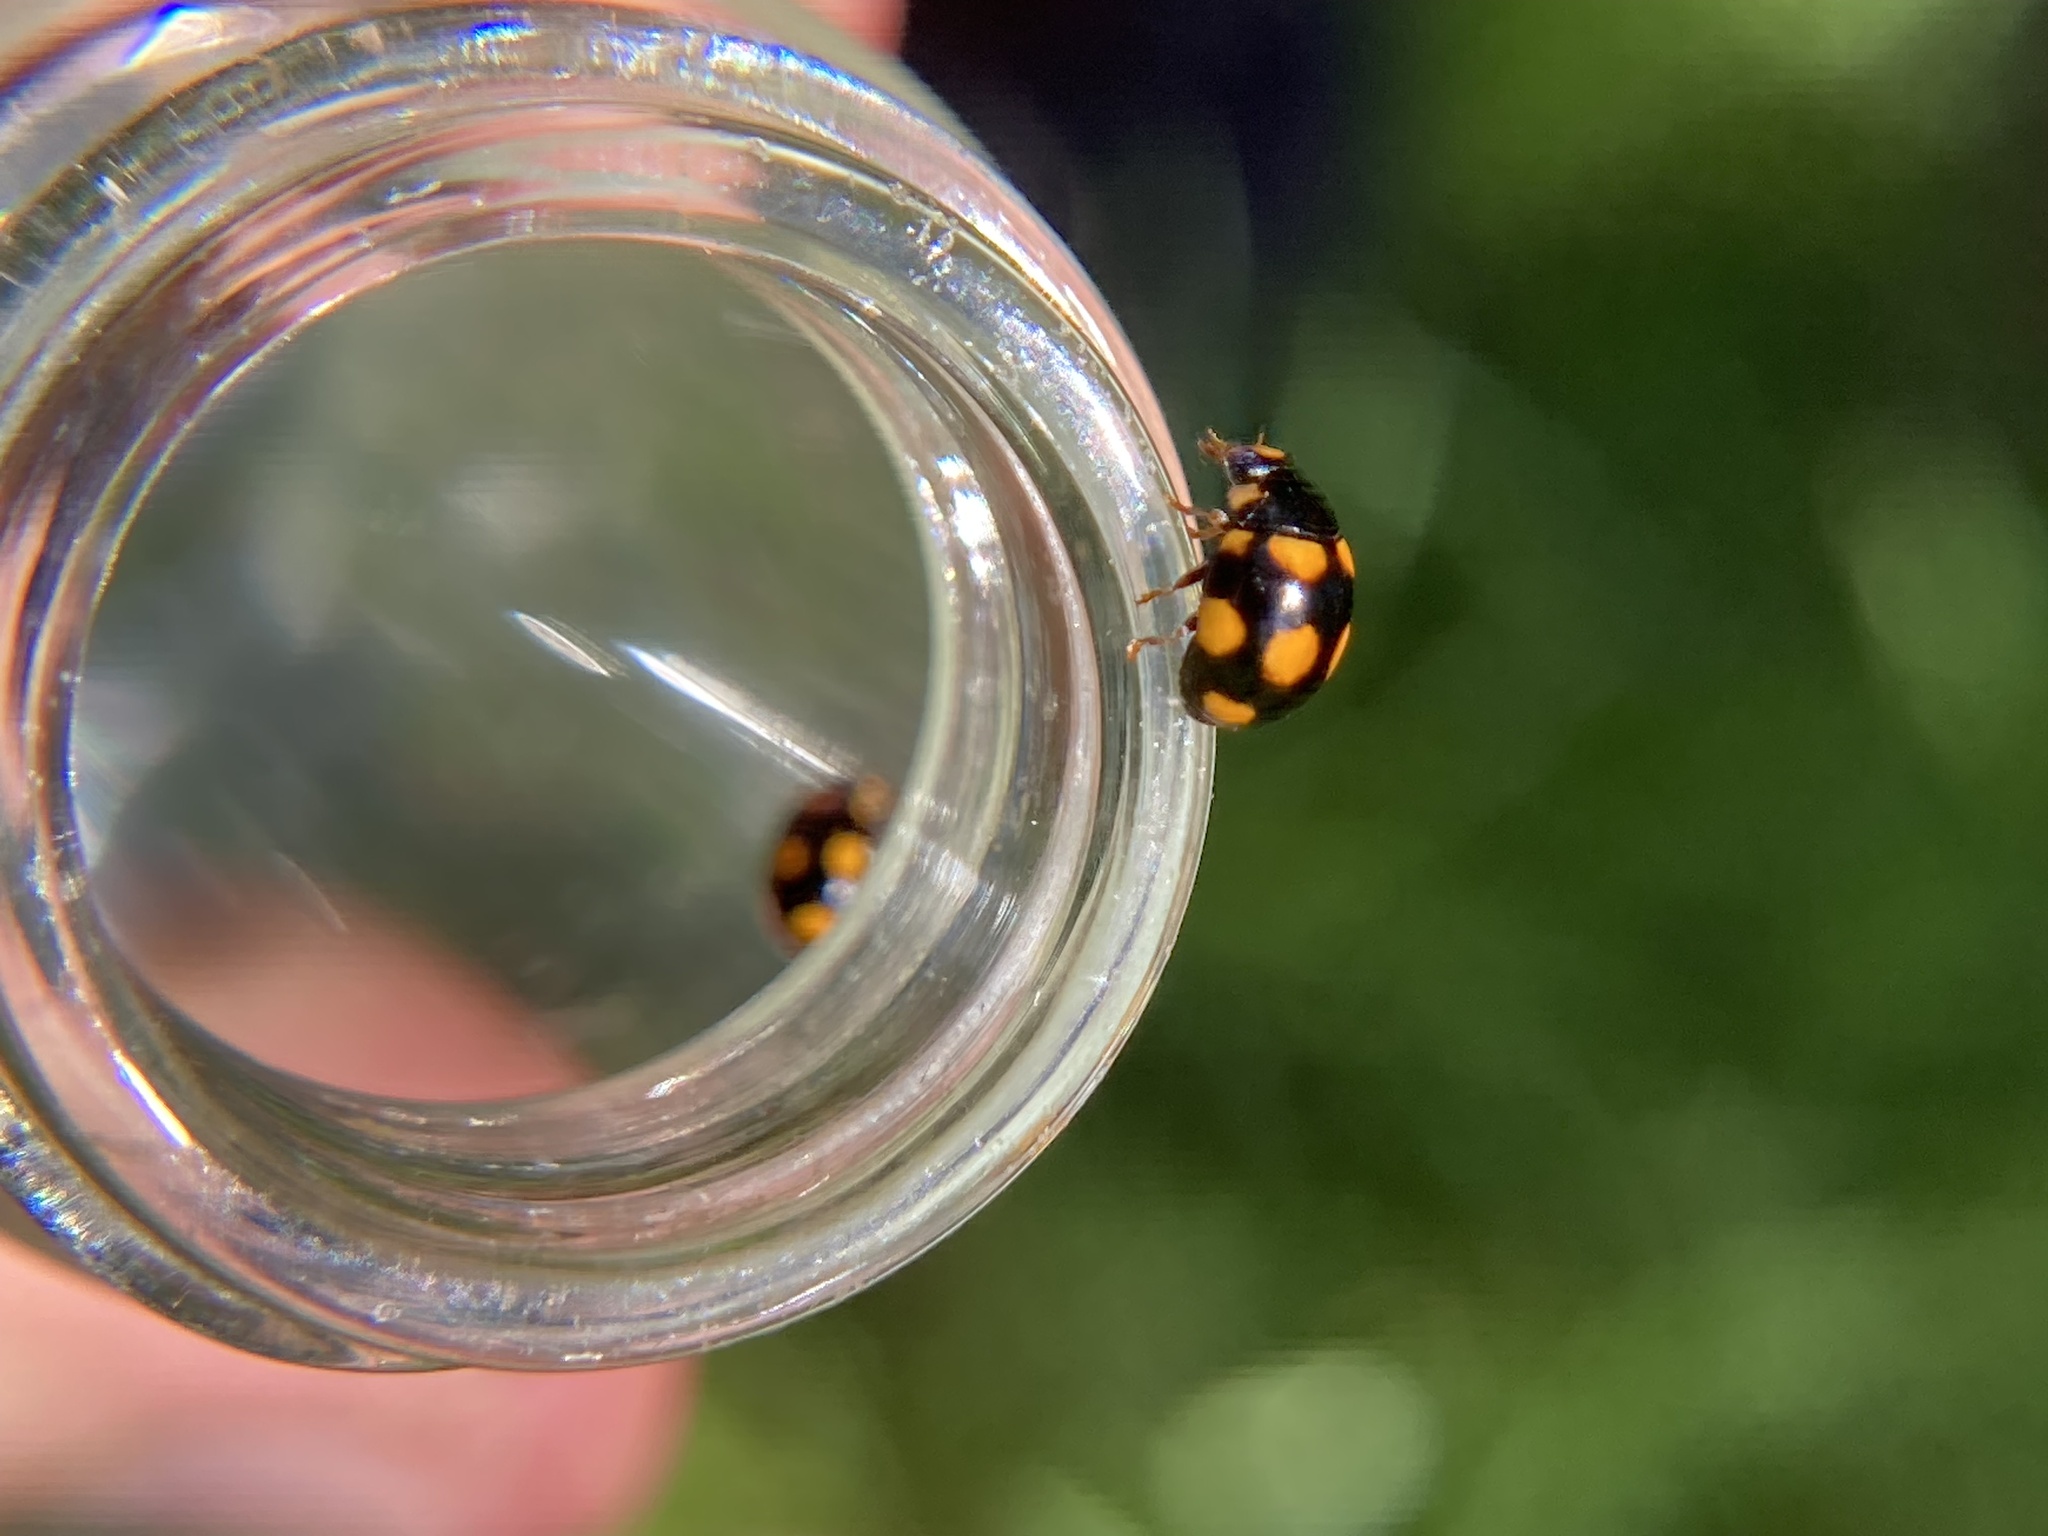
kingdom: Animalia
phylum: Arthropoda
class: Insecta
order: Coleoptera
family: Coccinellidae
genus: Brachiacantha
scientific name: Brachiacantha ursina
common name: Ursine spurleg lady beetle
